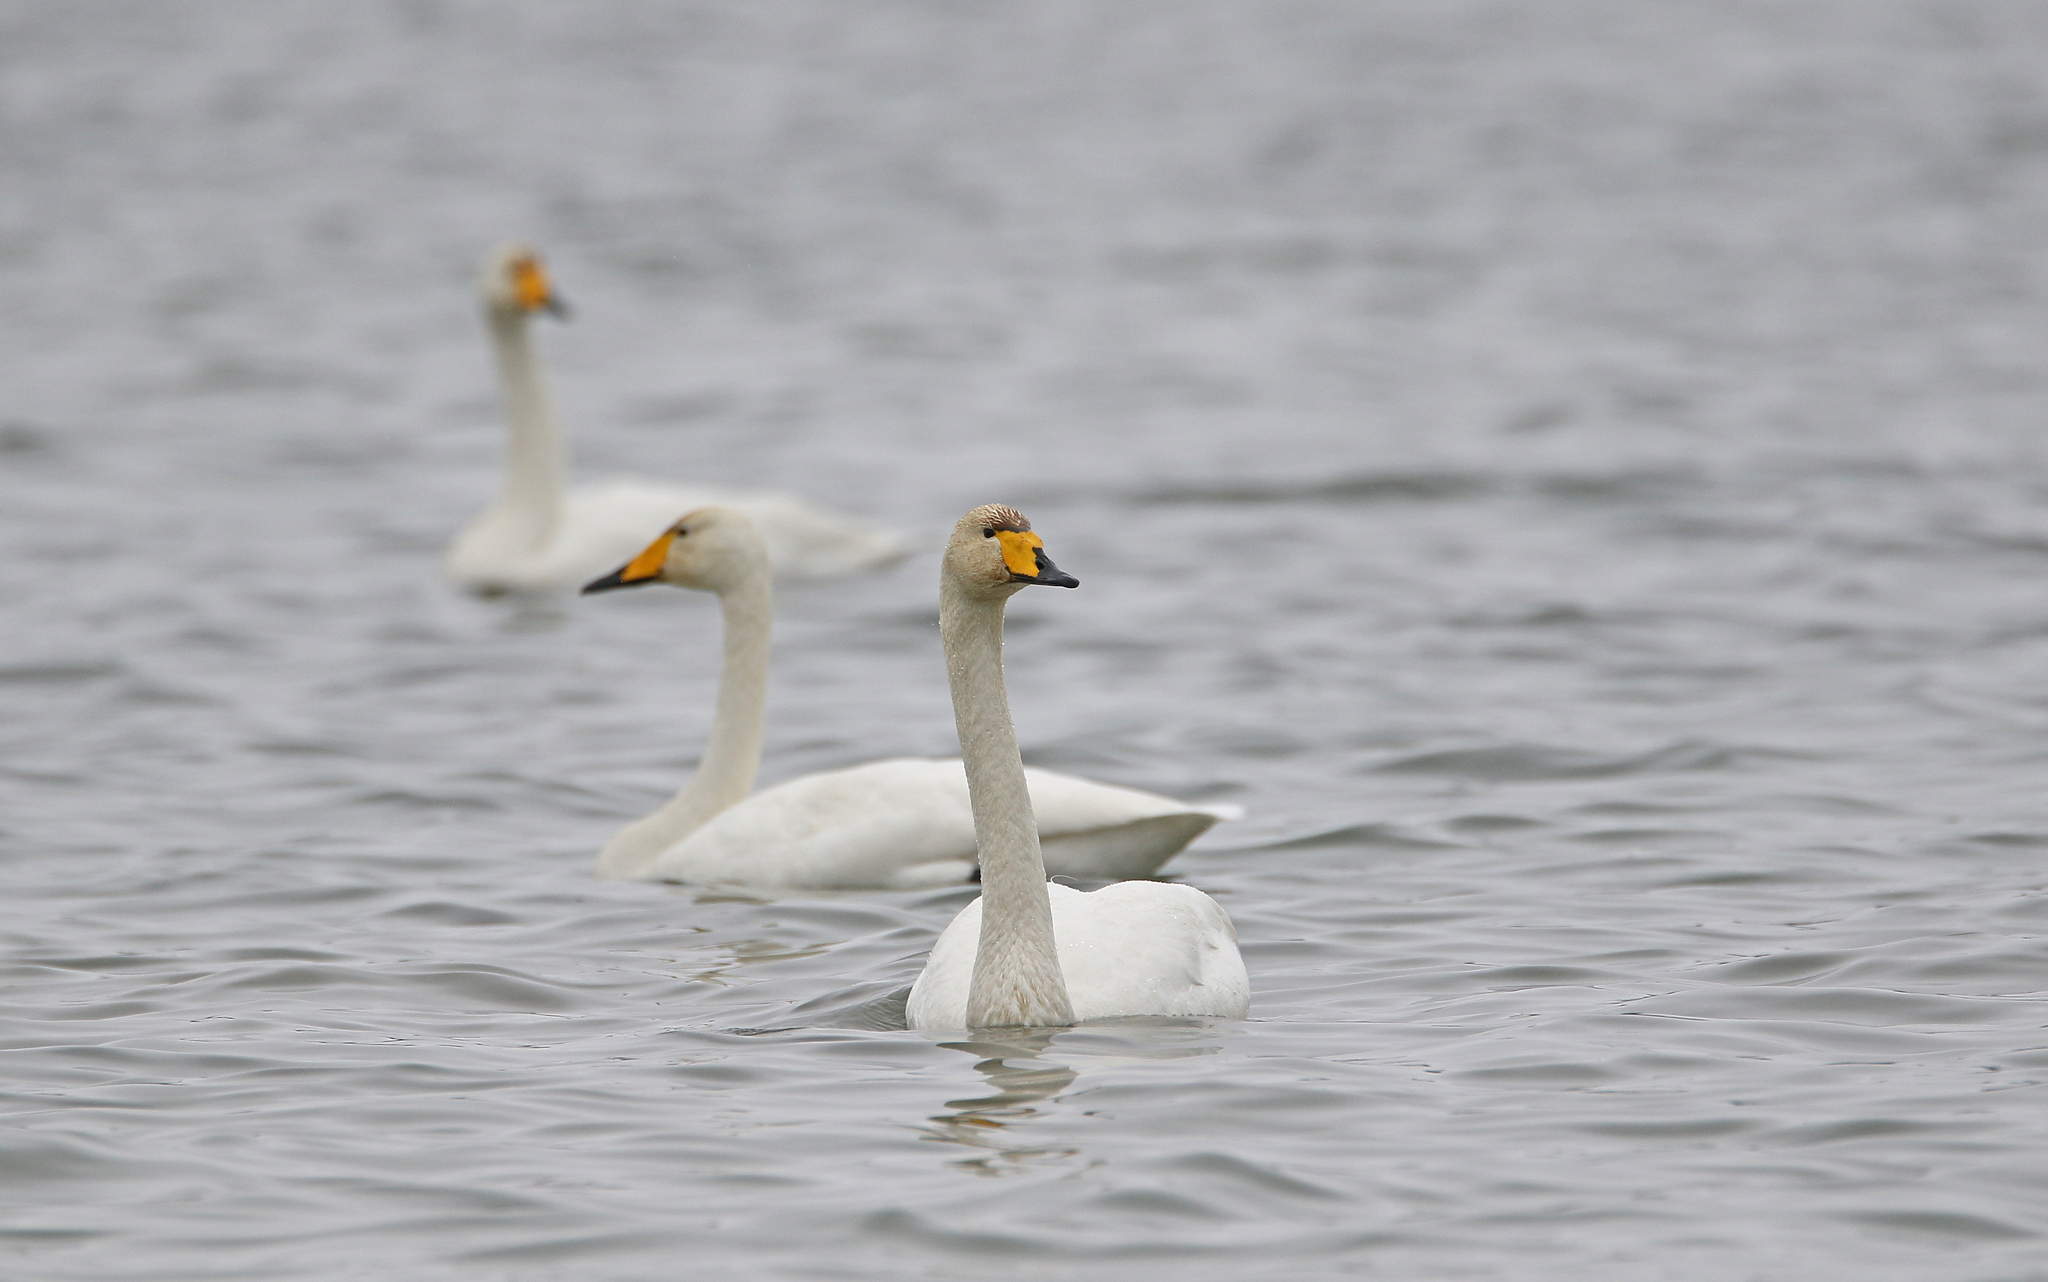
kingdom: Animalia
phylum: Chordata
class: Aves
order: Anseriformes
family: Anatidae
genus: Cygnus
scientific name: Cygnus cygnus
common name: Whooper swan
